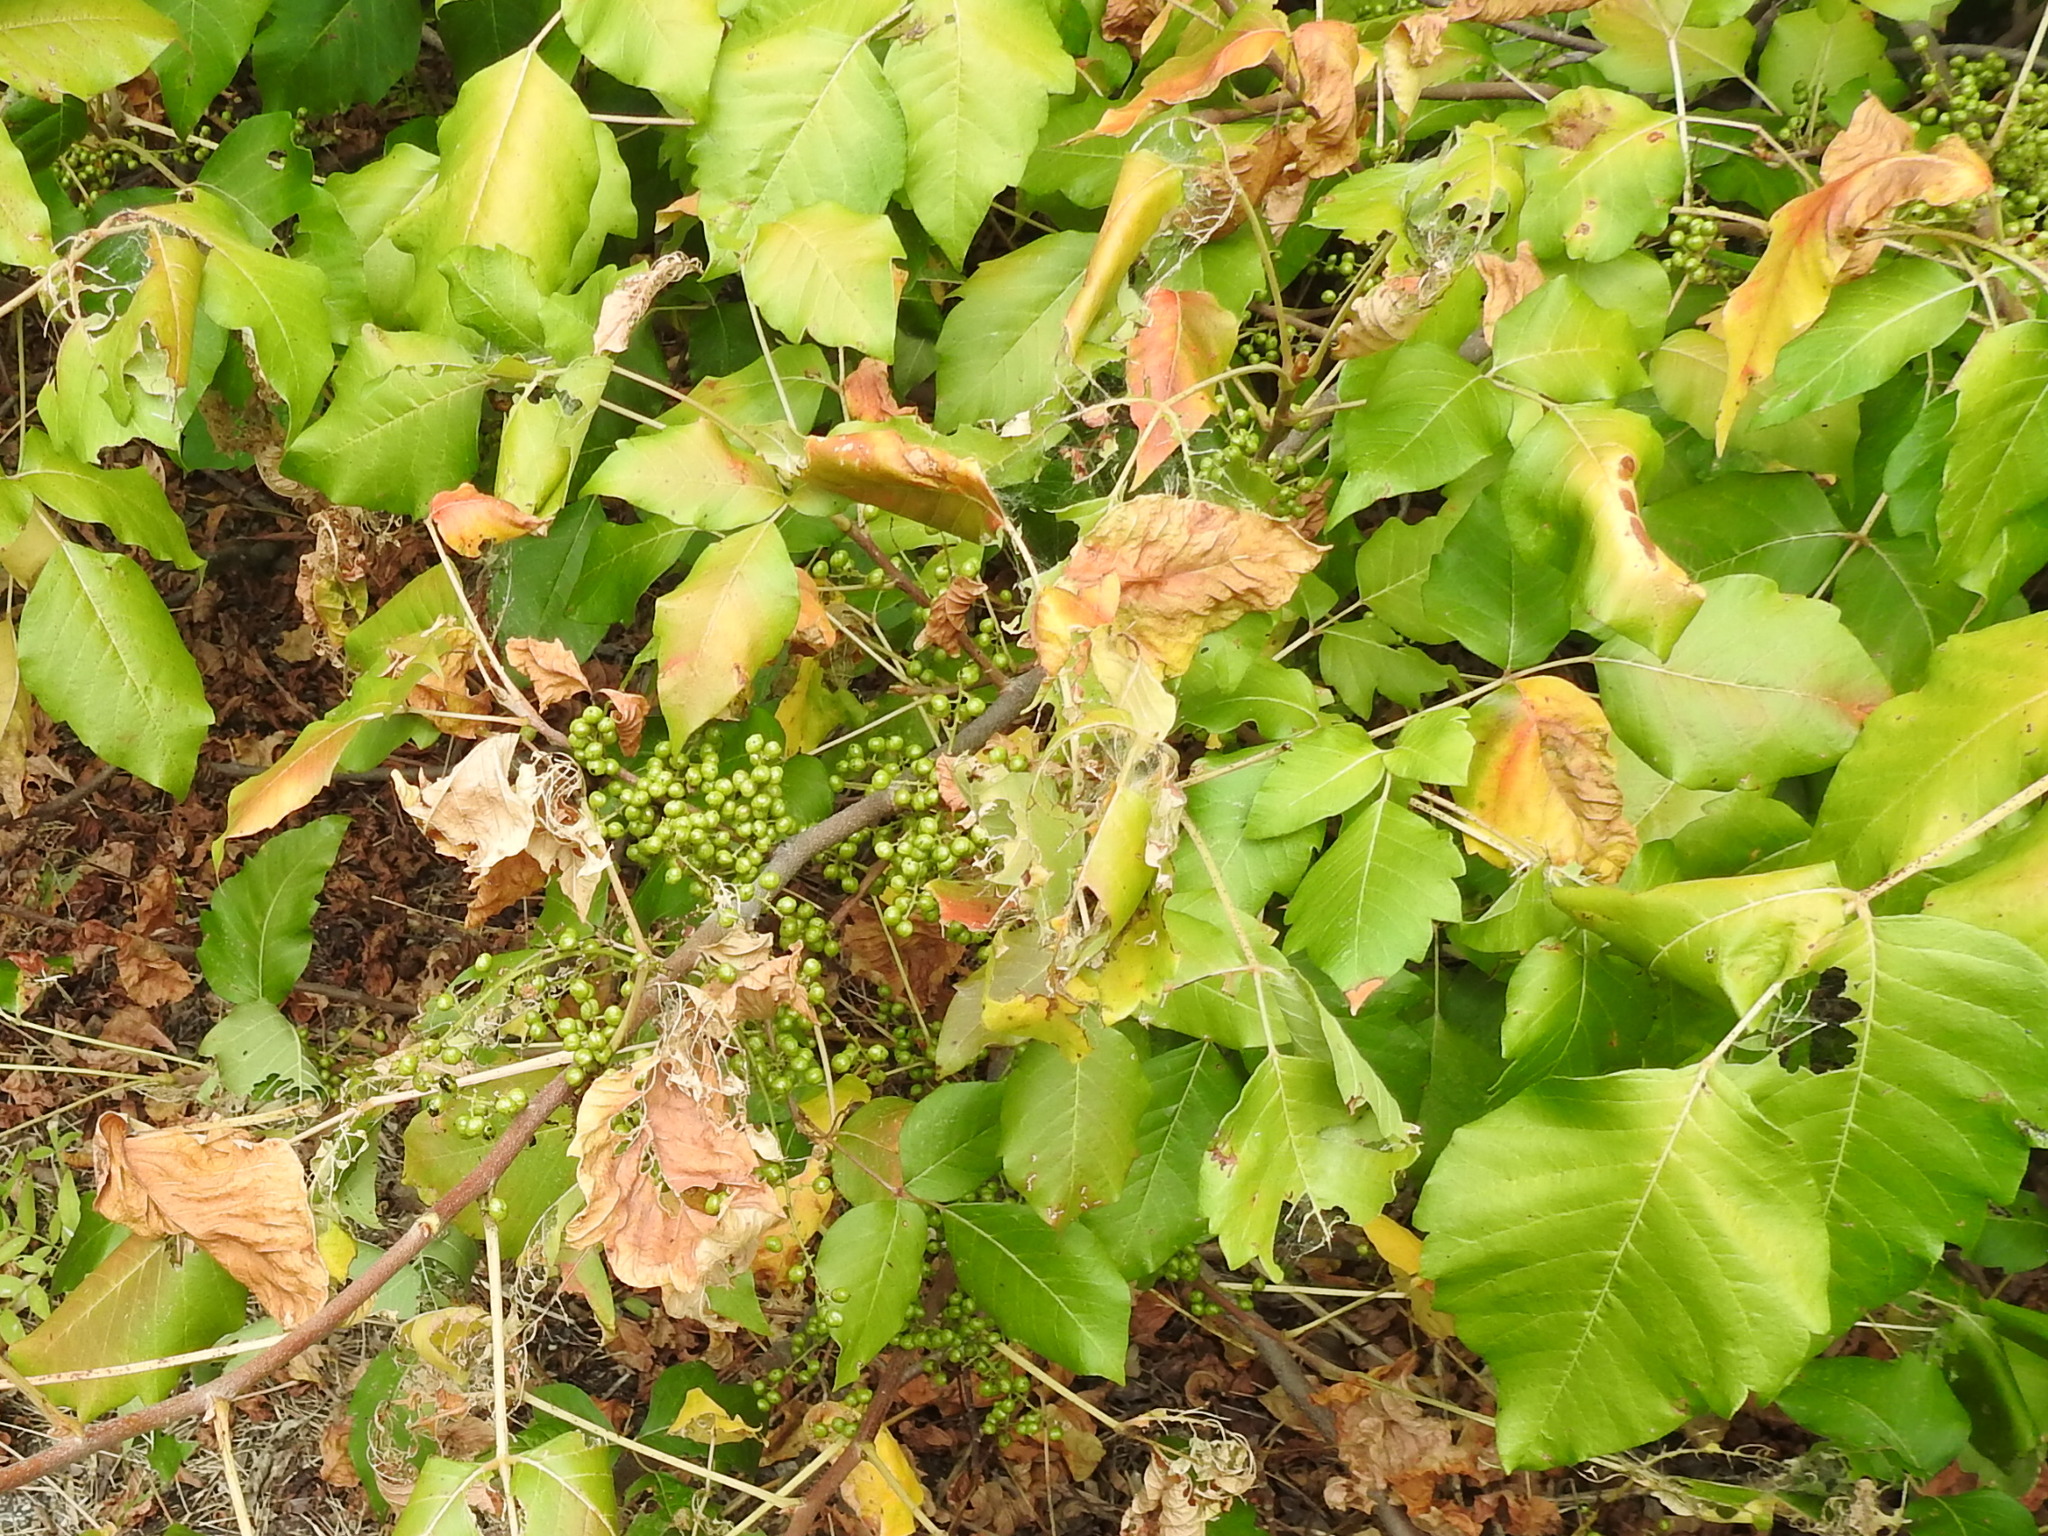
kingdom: Plantae
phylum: Tracheophyta
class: Magnoliopsida
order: Sapindales
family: Anacardiaceae
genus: Toxicodendron
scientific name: Toxicodendron radicans
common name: Poison ivy
